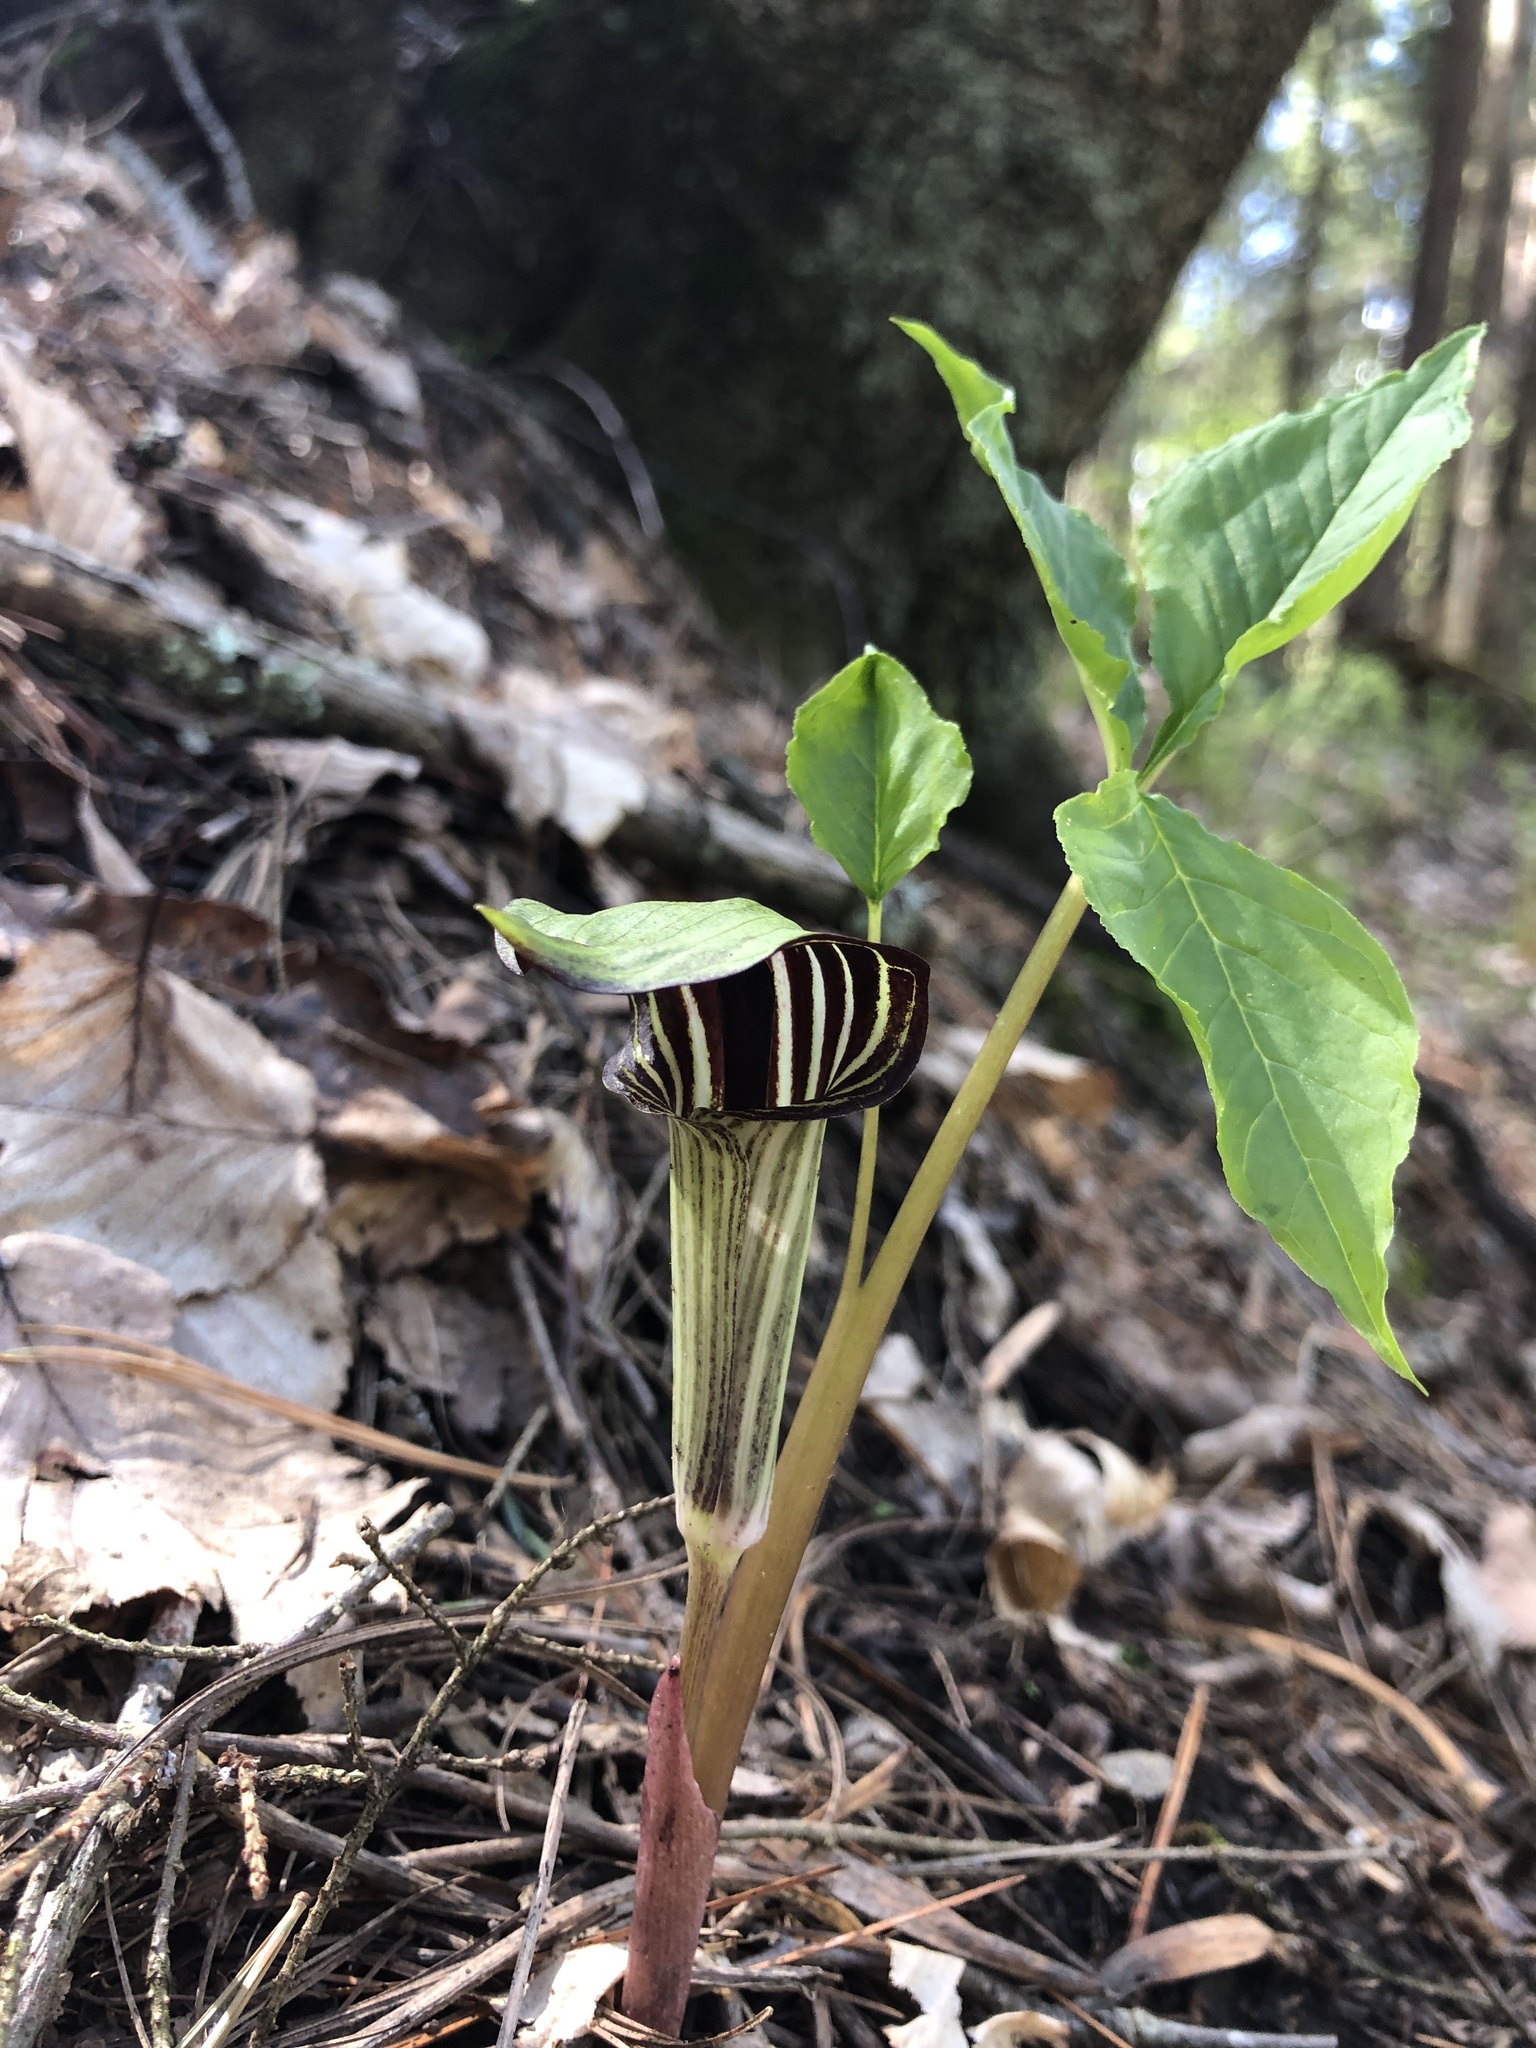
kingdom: Plantae
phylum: Tracheophyta
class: Liliopsida
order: Alismatales
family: Araceae
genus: Arisaema
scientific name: Arisaema triphyllum
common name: Jack-in-the-pulpit
